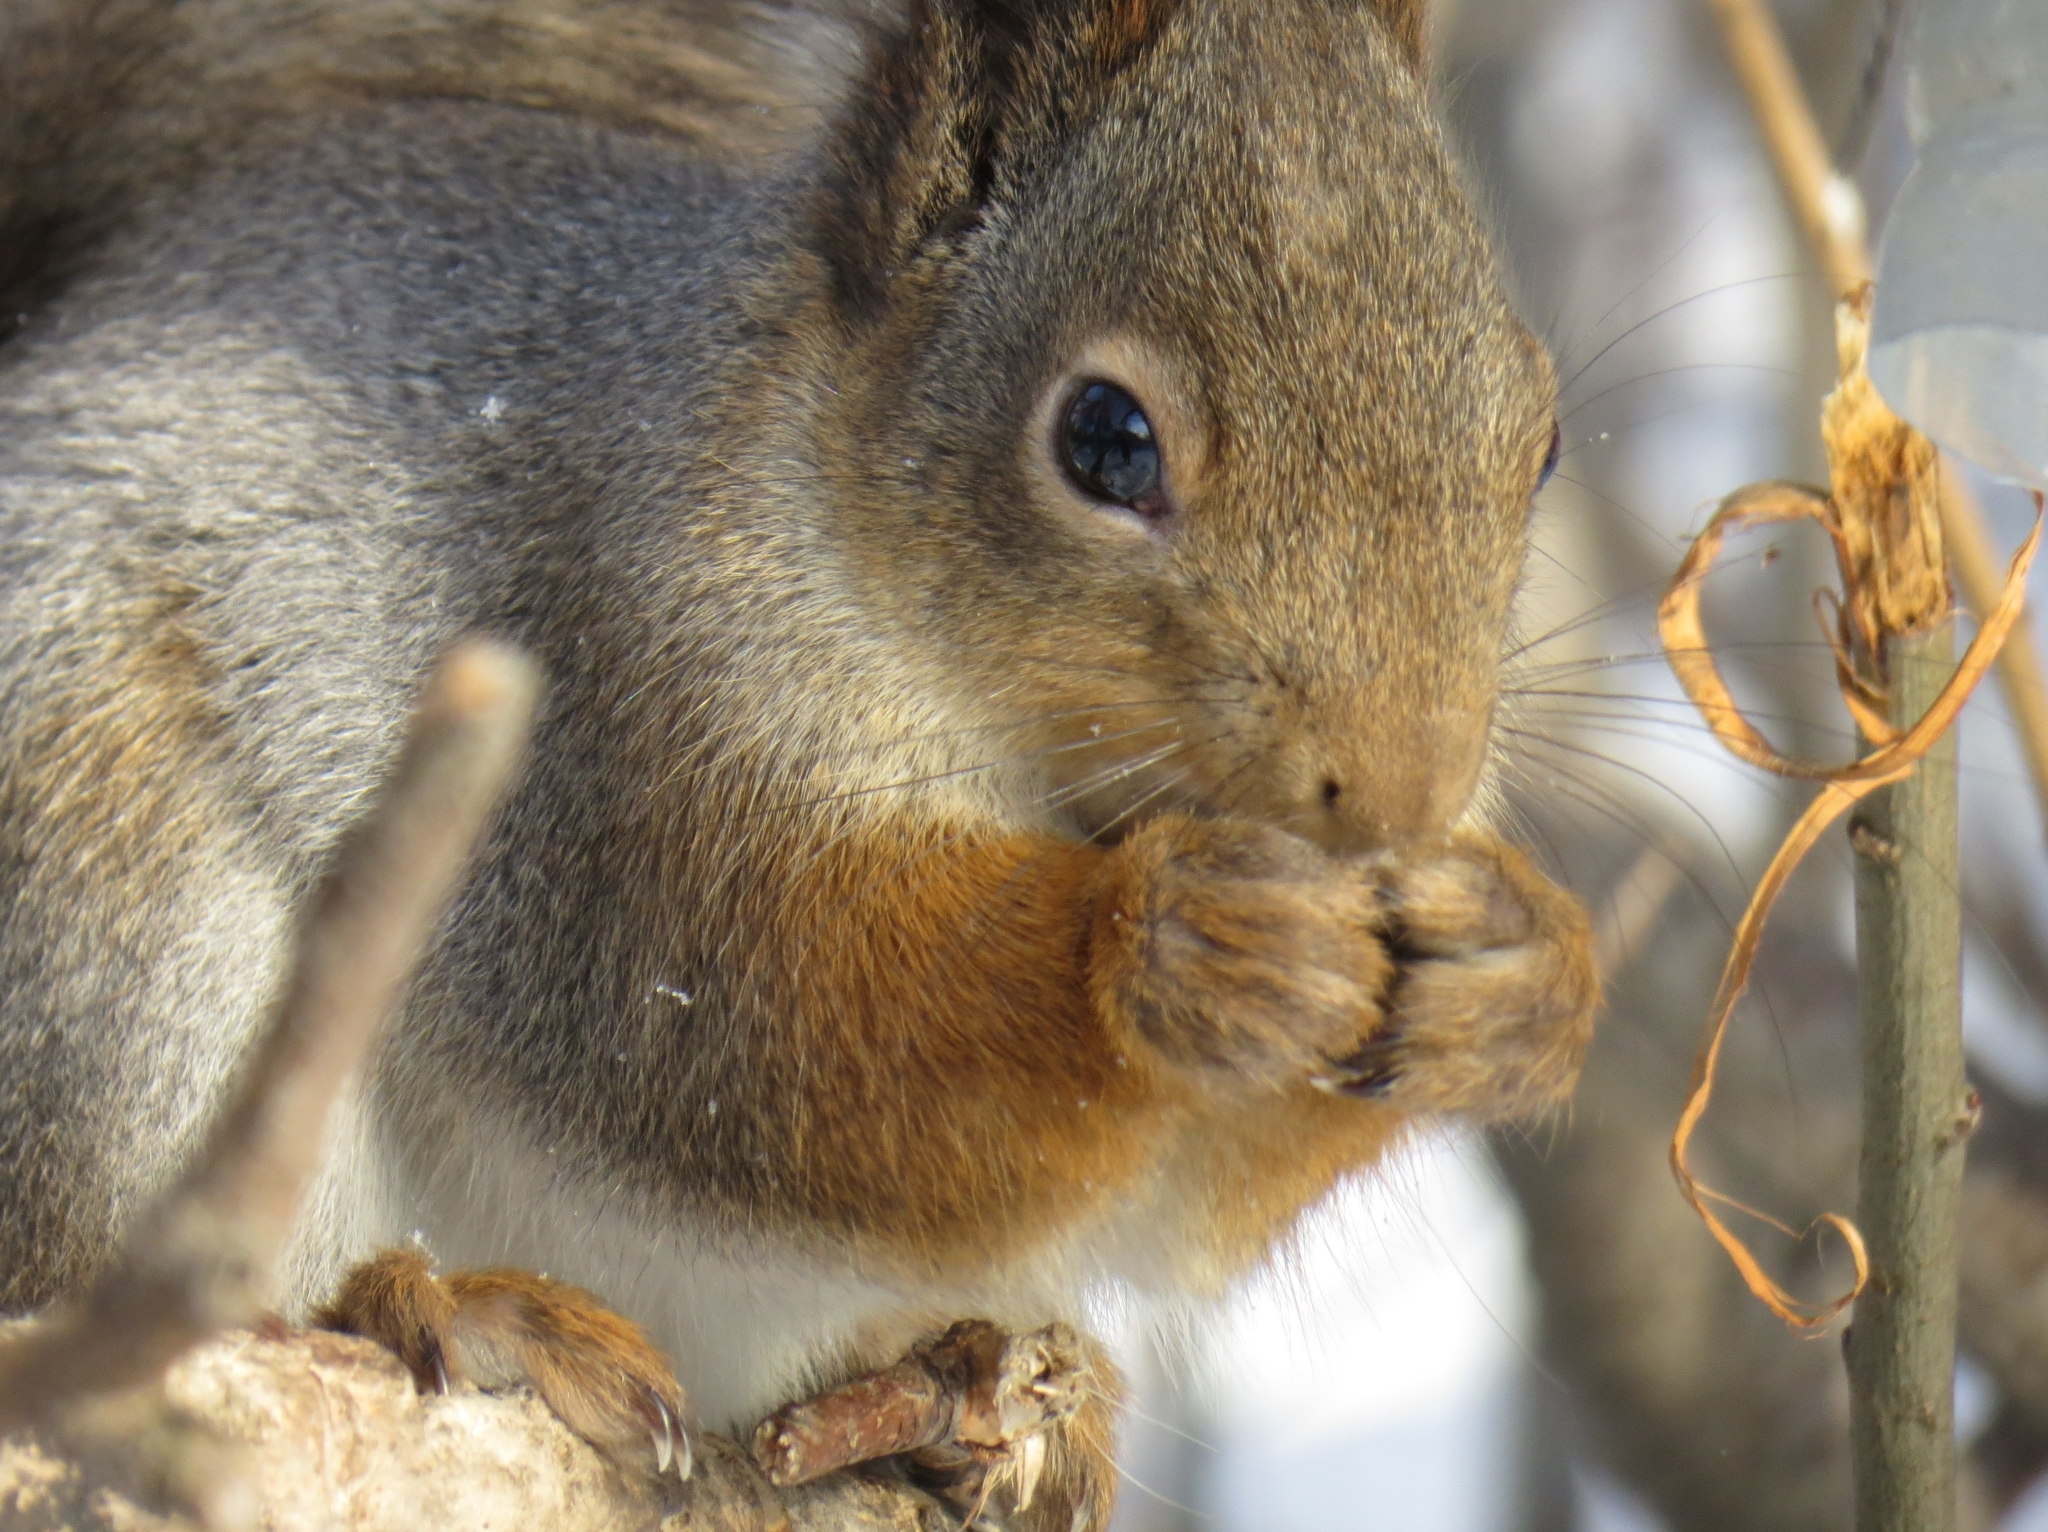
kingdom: Animalia
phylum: Chordata
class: Mammalia
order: Rodentia
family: Sciuridae
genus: Sciurus
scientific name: Sciurus vulgaris
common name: Eurasian red squirrel
